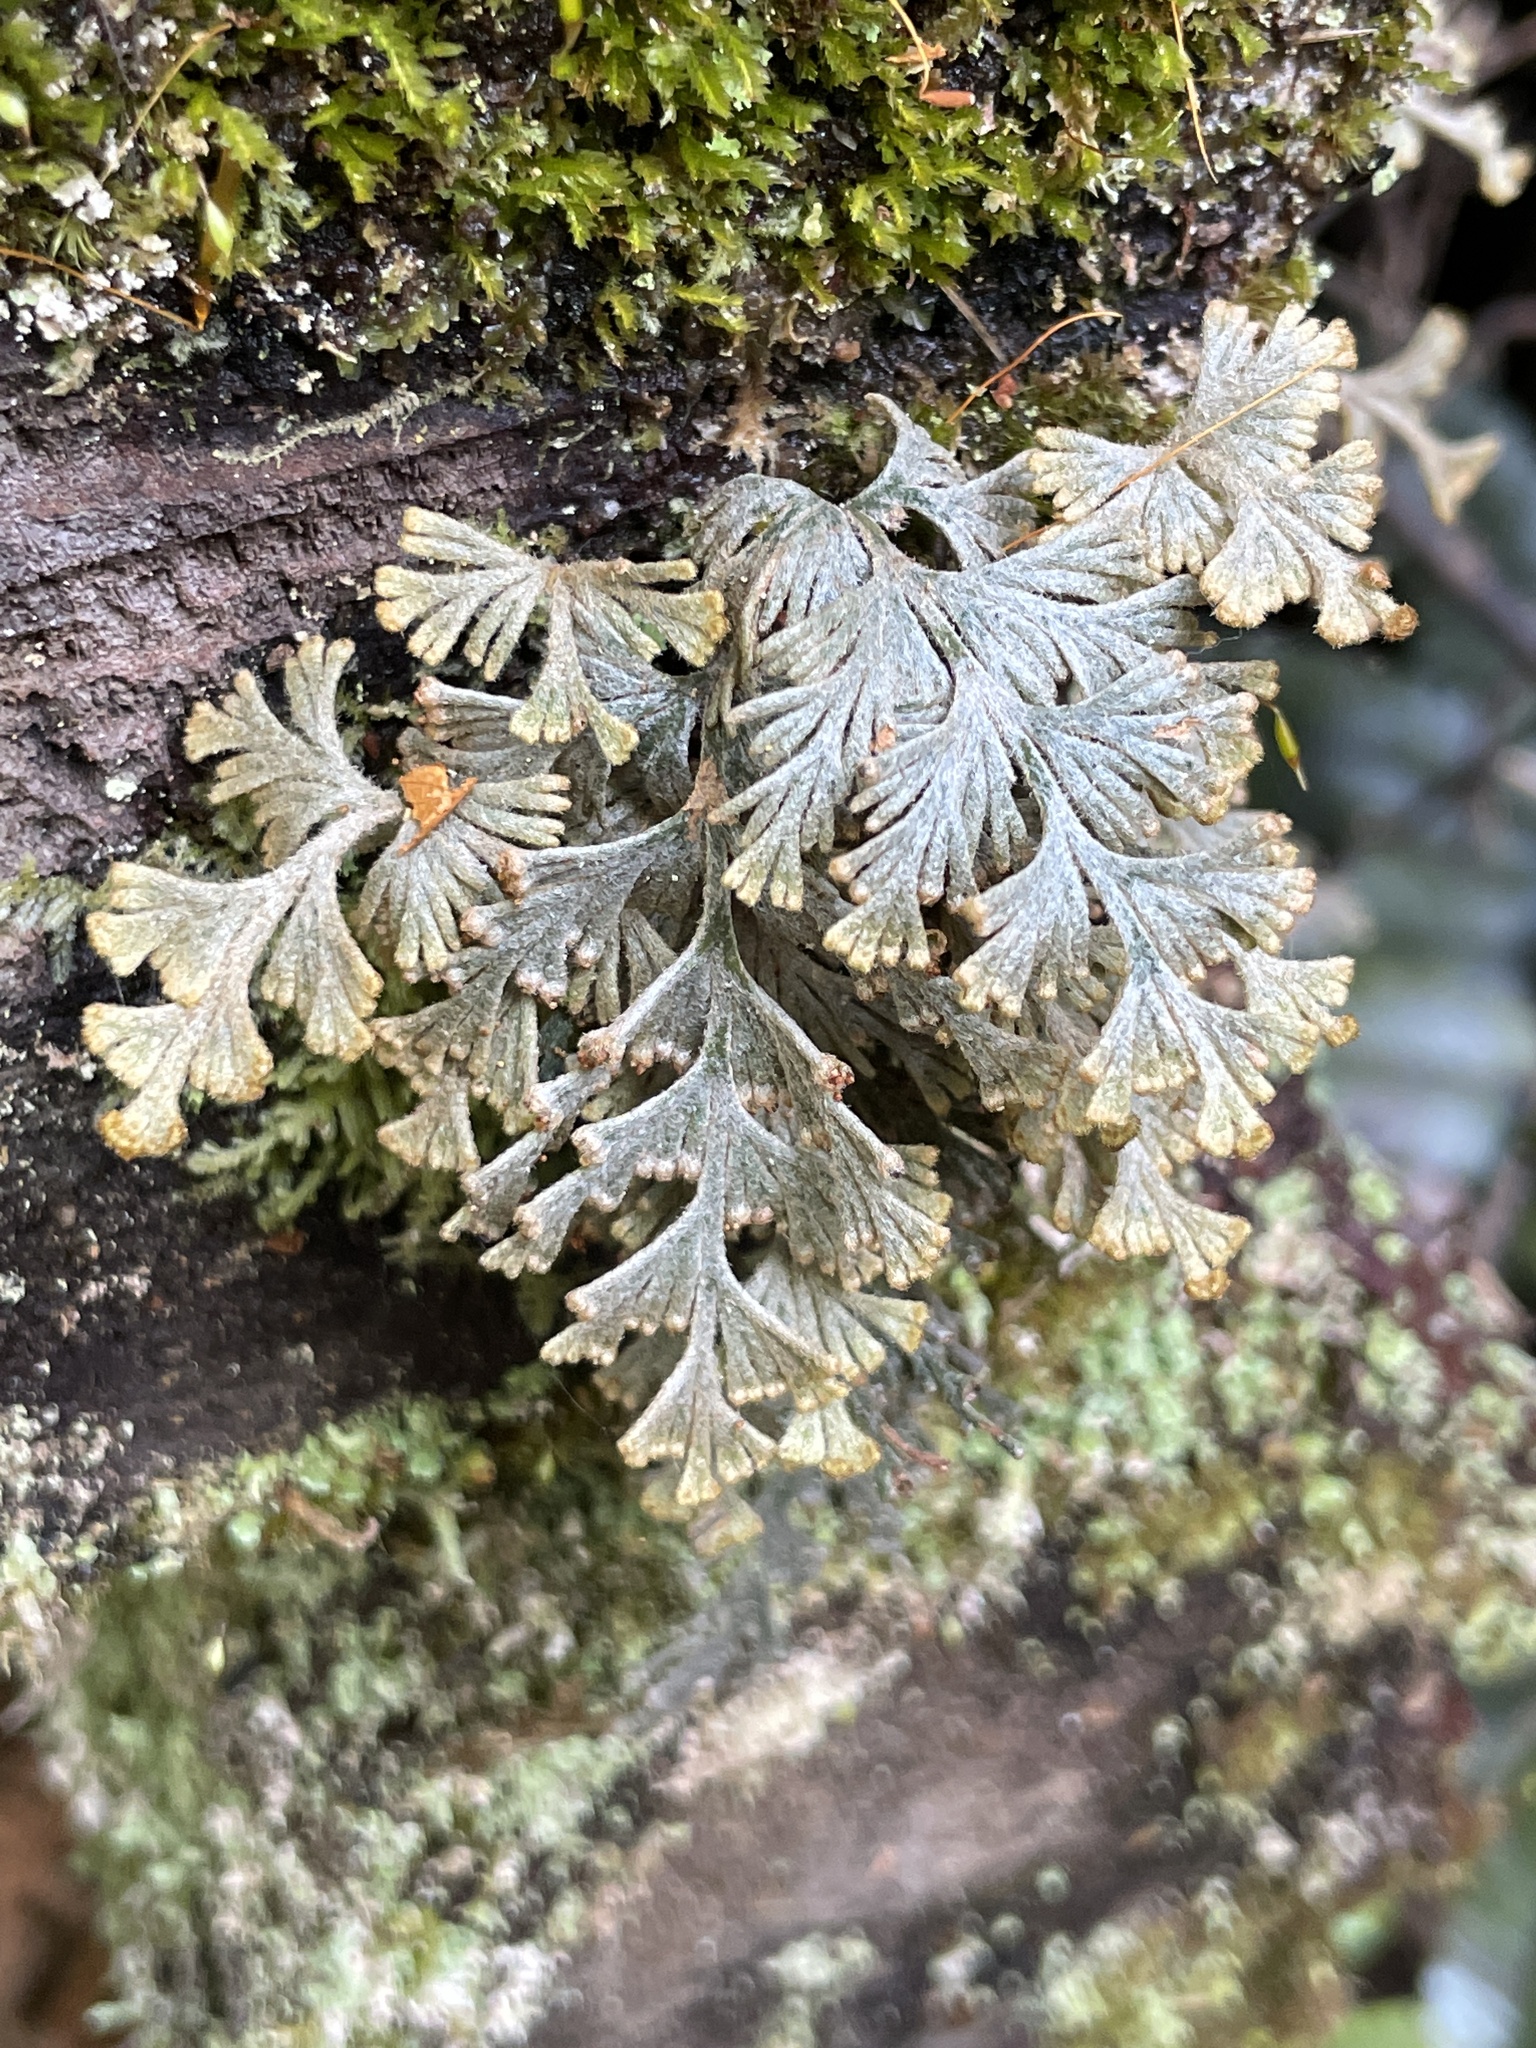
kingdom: Plantae
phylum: Tracheophyta
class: Polypodiopsida
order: Hymenophyllales
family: Hymenophyllaceae
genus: Hymenophyllum
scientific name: Hymenophyllum malingii
